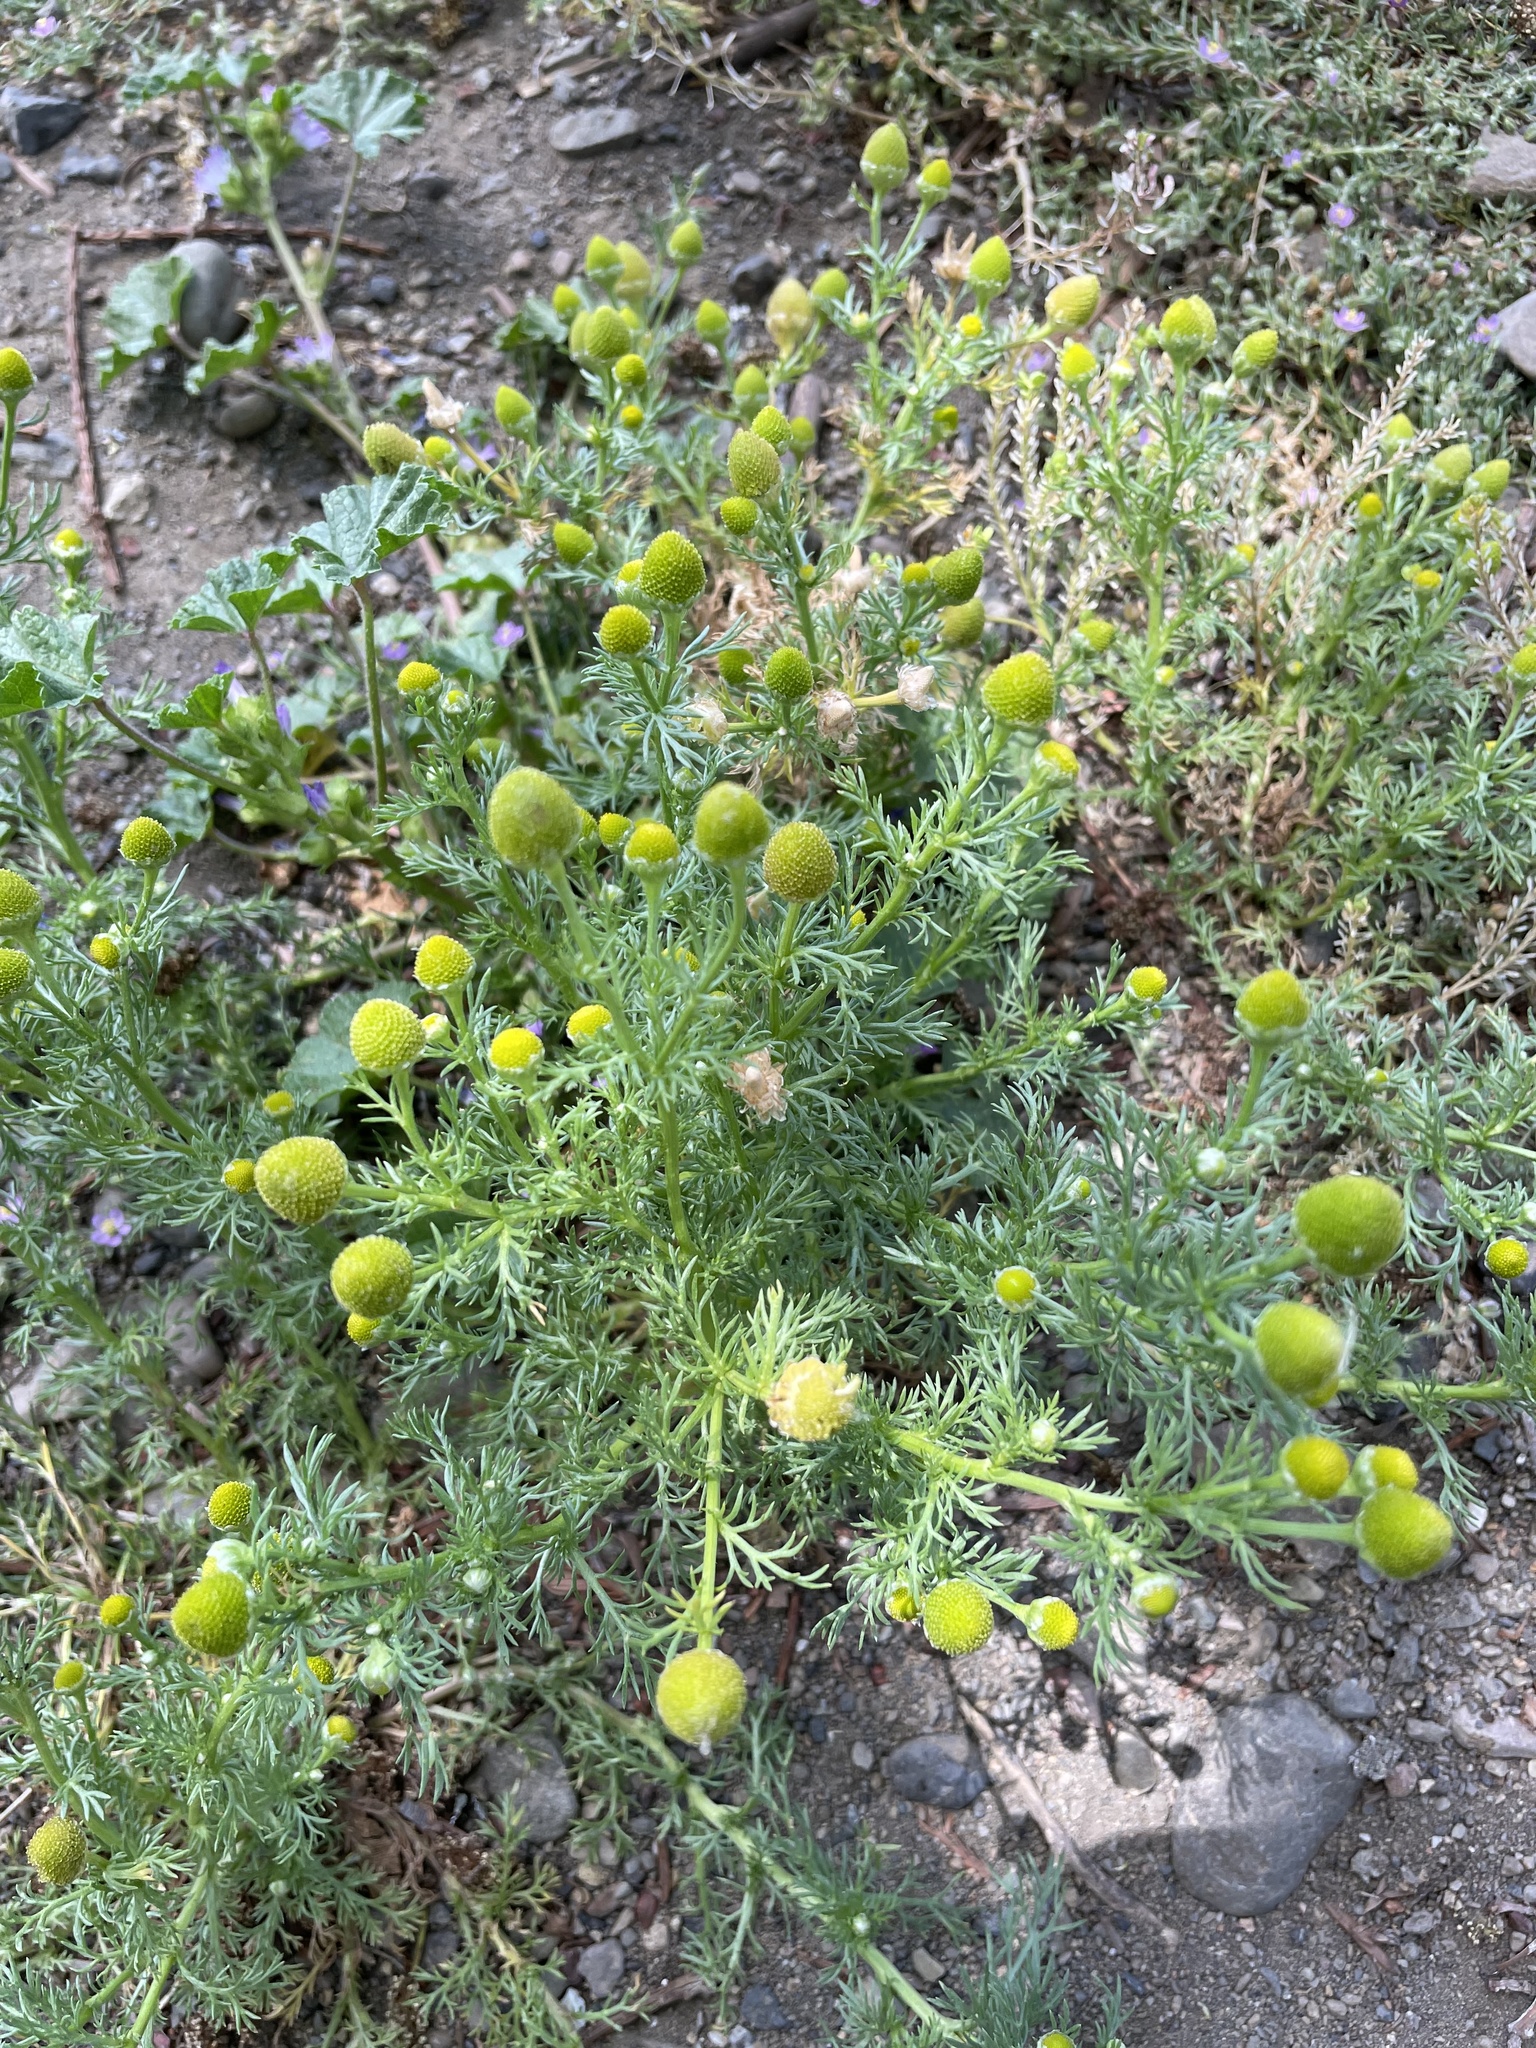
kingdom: Plantae
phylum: Tracheophyta
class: Magnoliopsida
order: Asterales
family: Asteraceae
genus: Matricaria
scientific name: Matricaria discoidea
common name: Disc mayweed
